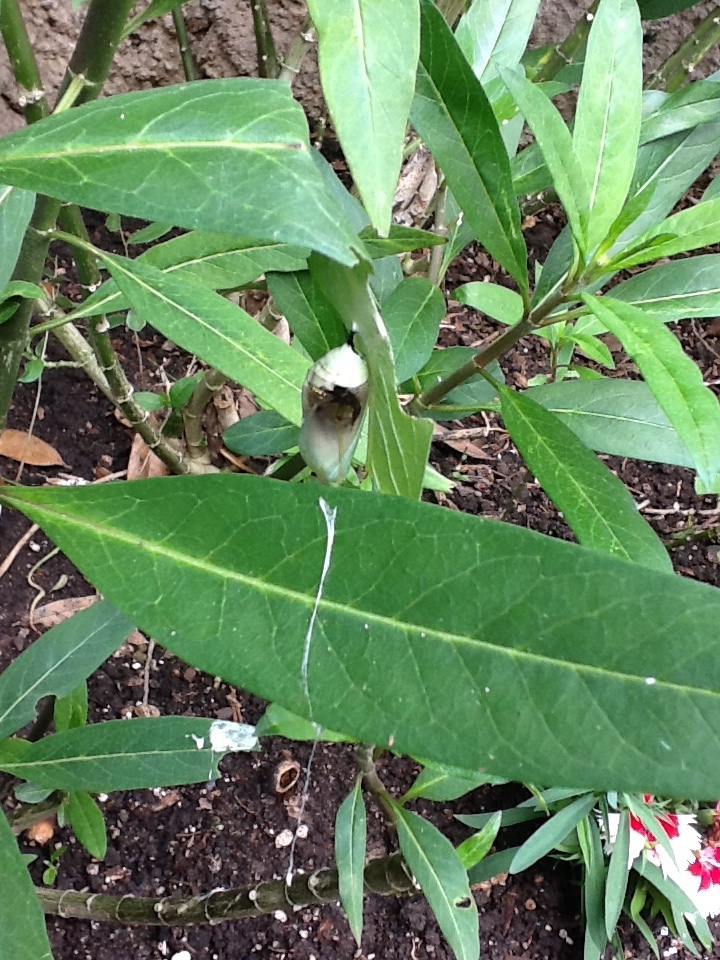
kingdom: Animalia
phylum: Arthropoda
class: Insecta
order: Lepidoptera
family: Nymphalidae
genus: Danaus
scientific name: Danaus plexippus
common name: Monarch
